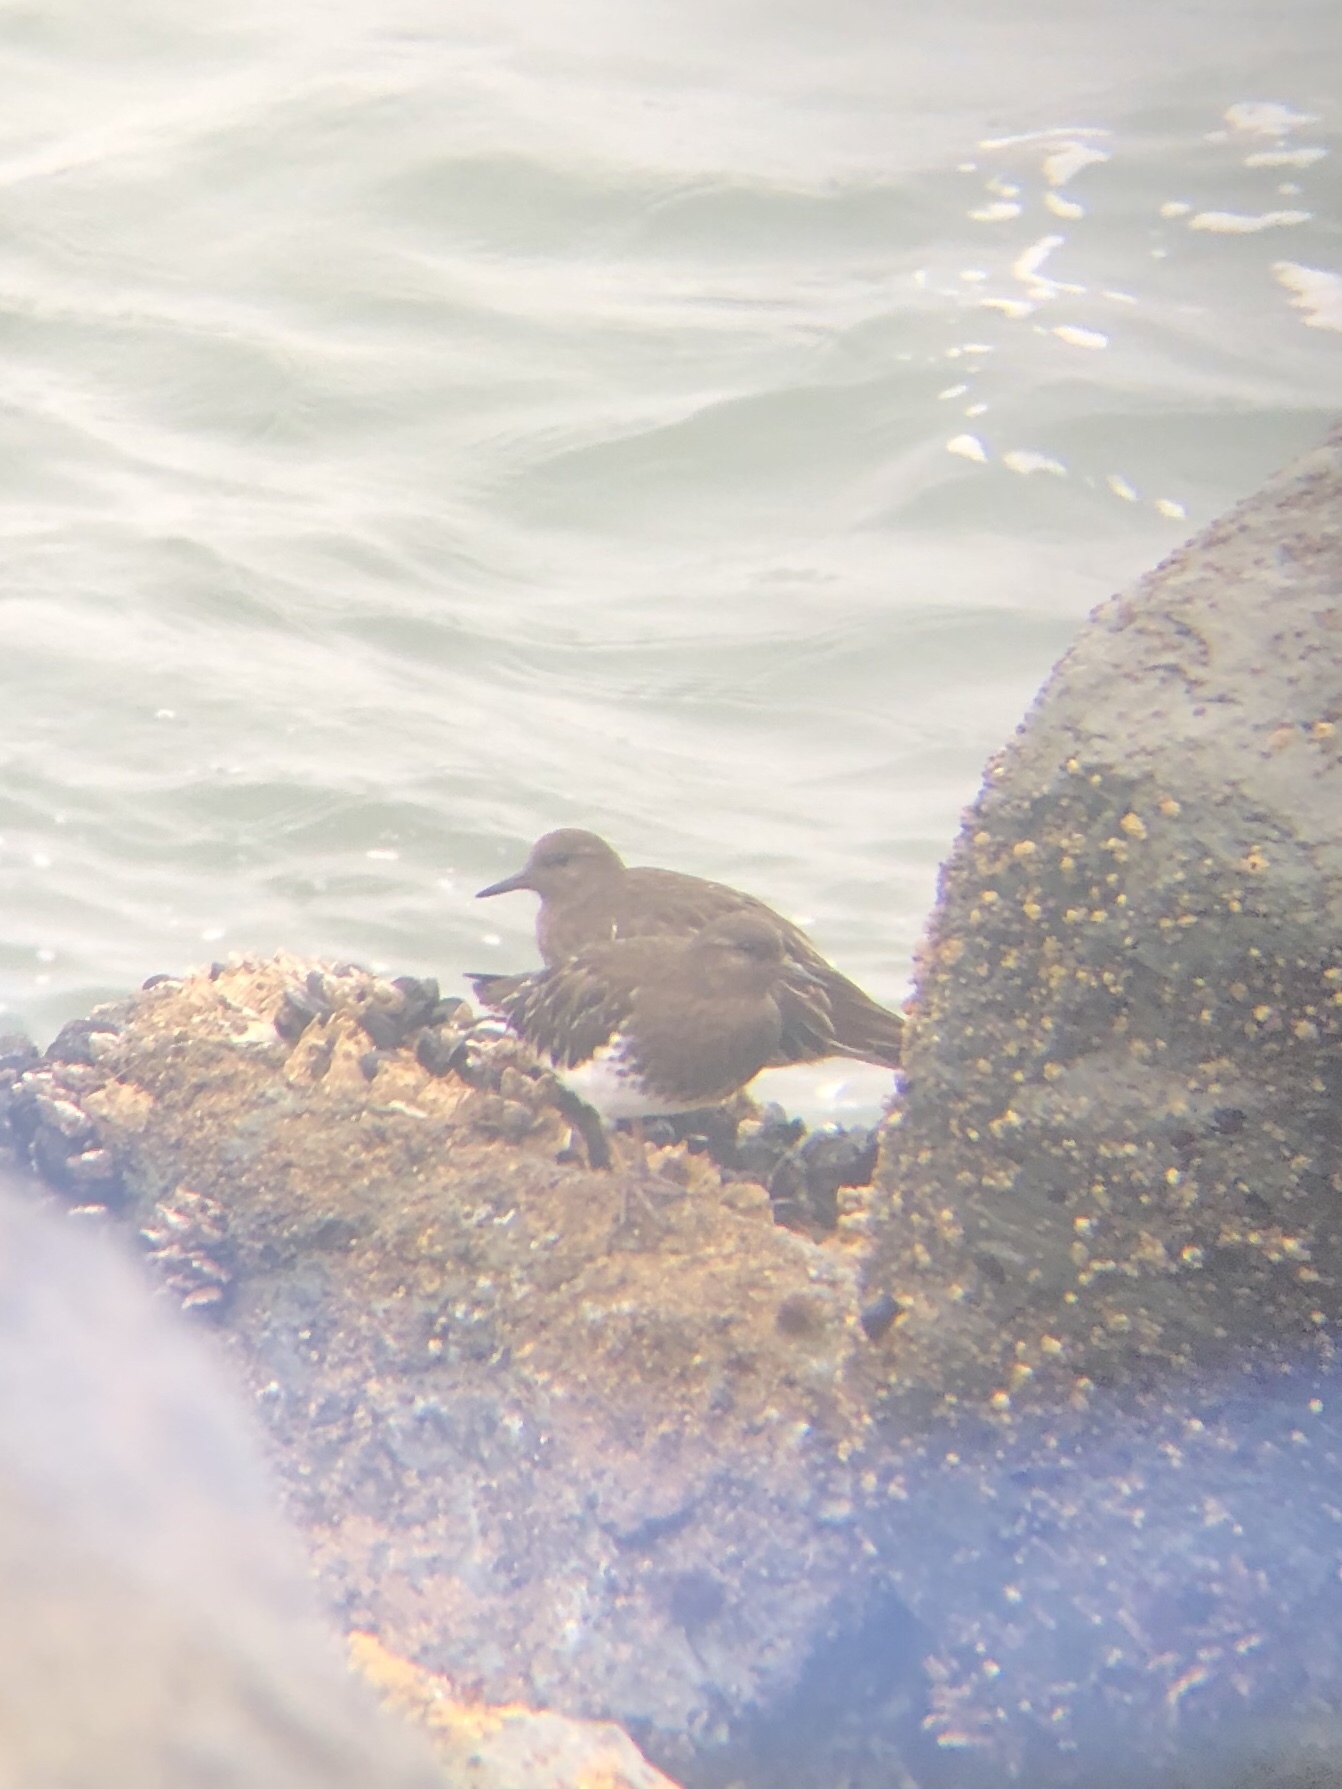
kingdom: Animalia
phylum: Chordata
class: Aves
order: Charadriiformes
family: Scolopacidae
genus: Arenaria
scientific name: Arenaria melanocephala
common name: Black turnstone
